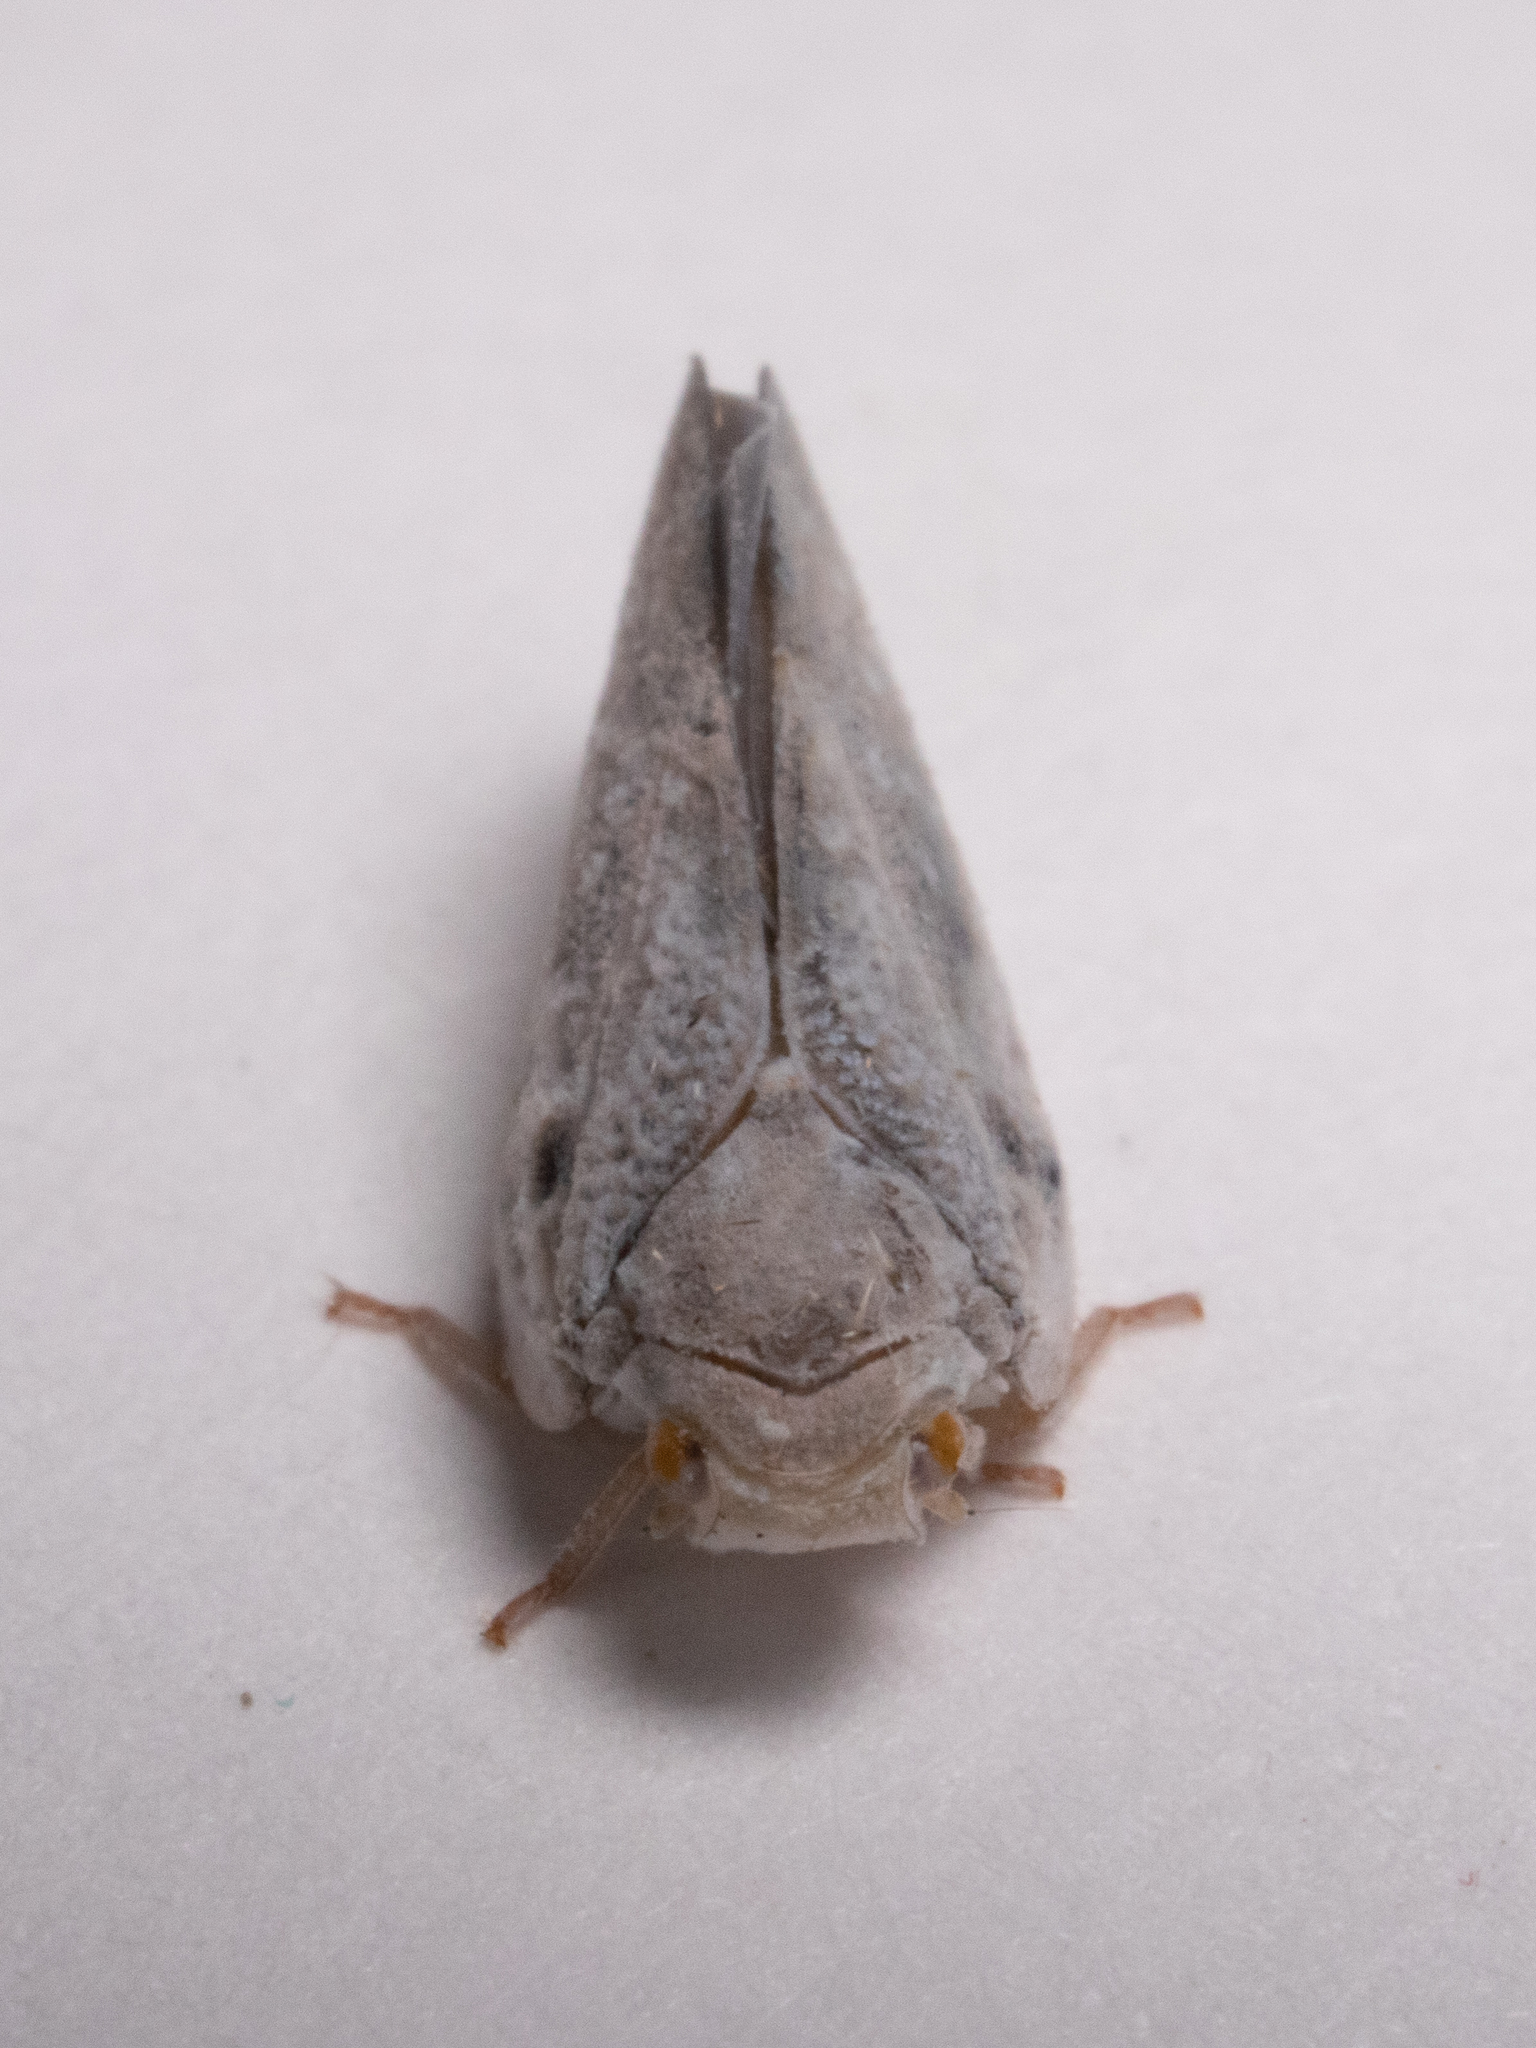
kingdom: Animalia
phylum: Arthropoda
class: Insecta
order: Hemiptera
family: Flatidae
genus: Metcalfa
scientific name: Metcalfa pruinosa
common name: Citrus flatid planthopper
